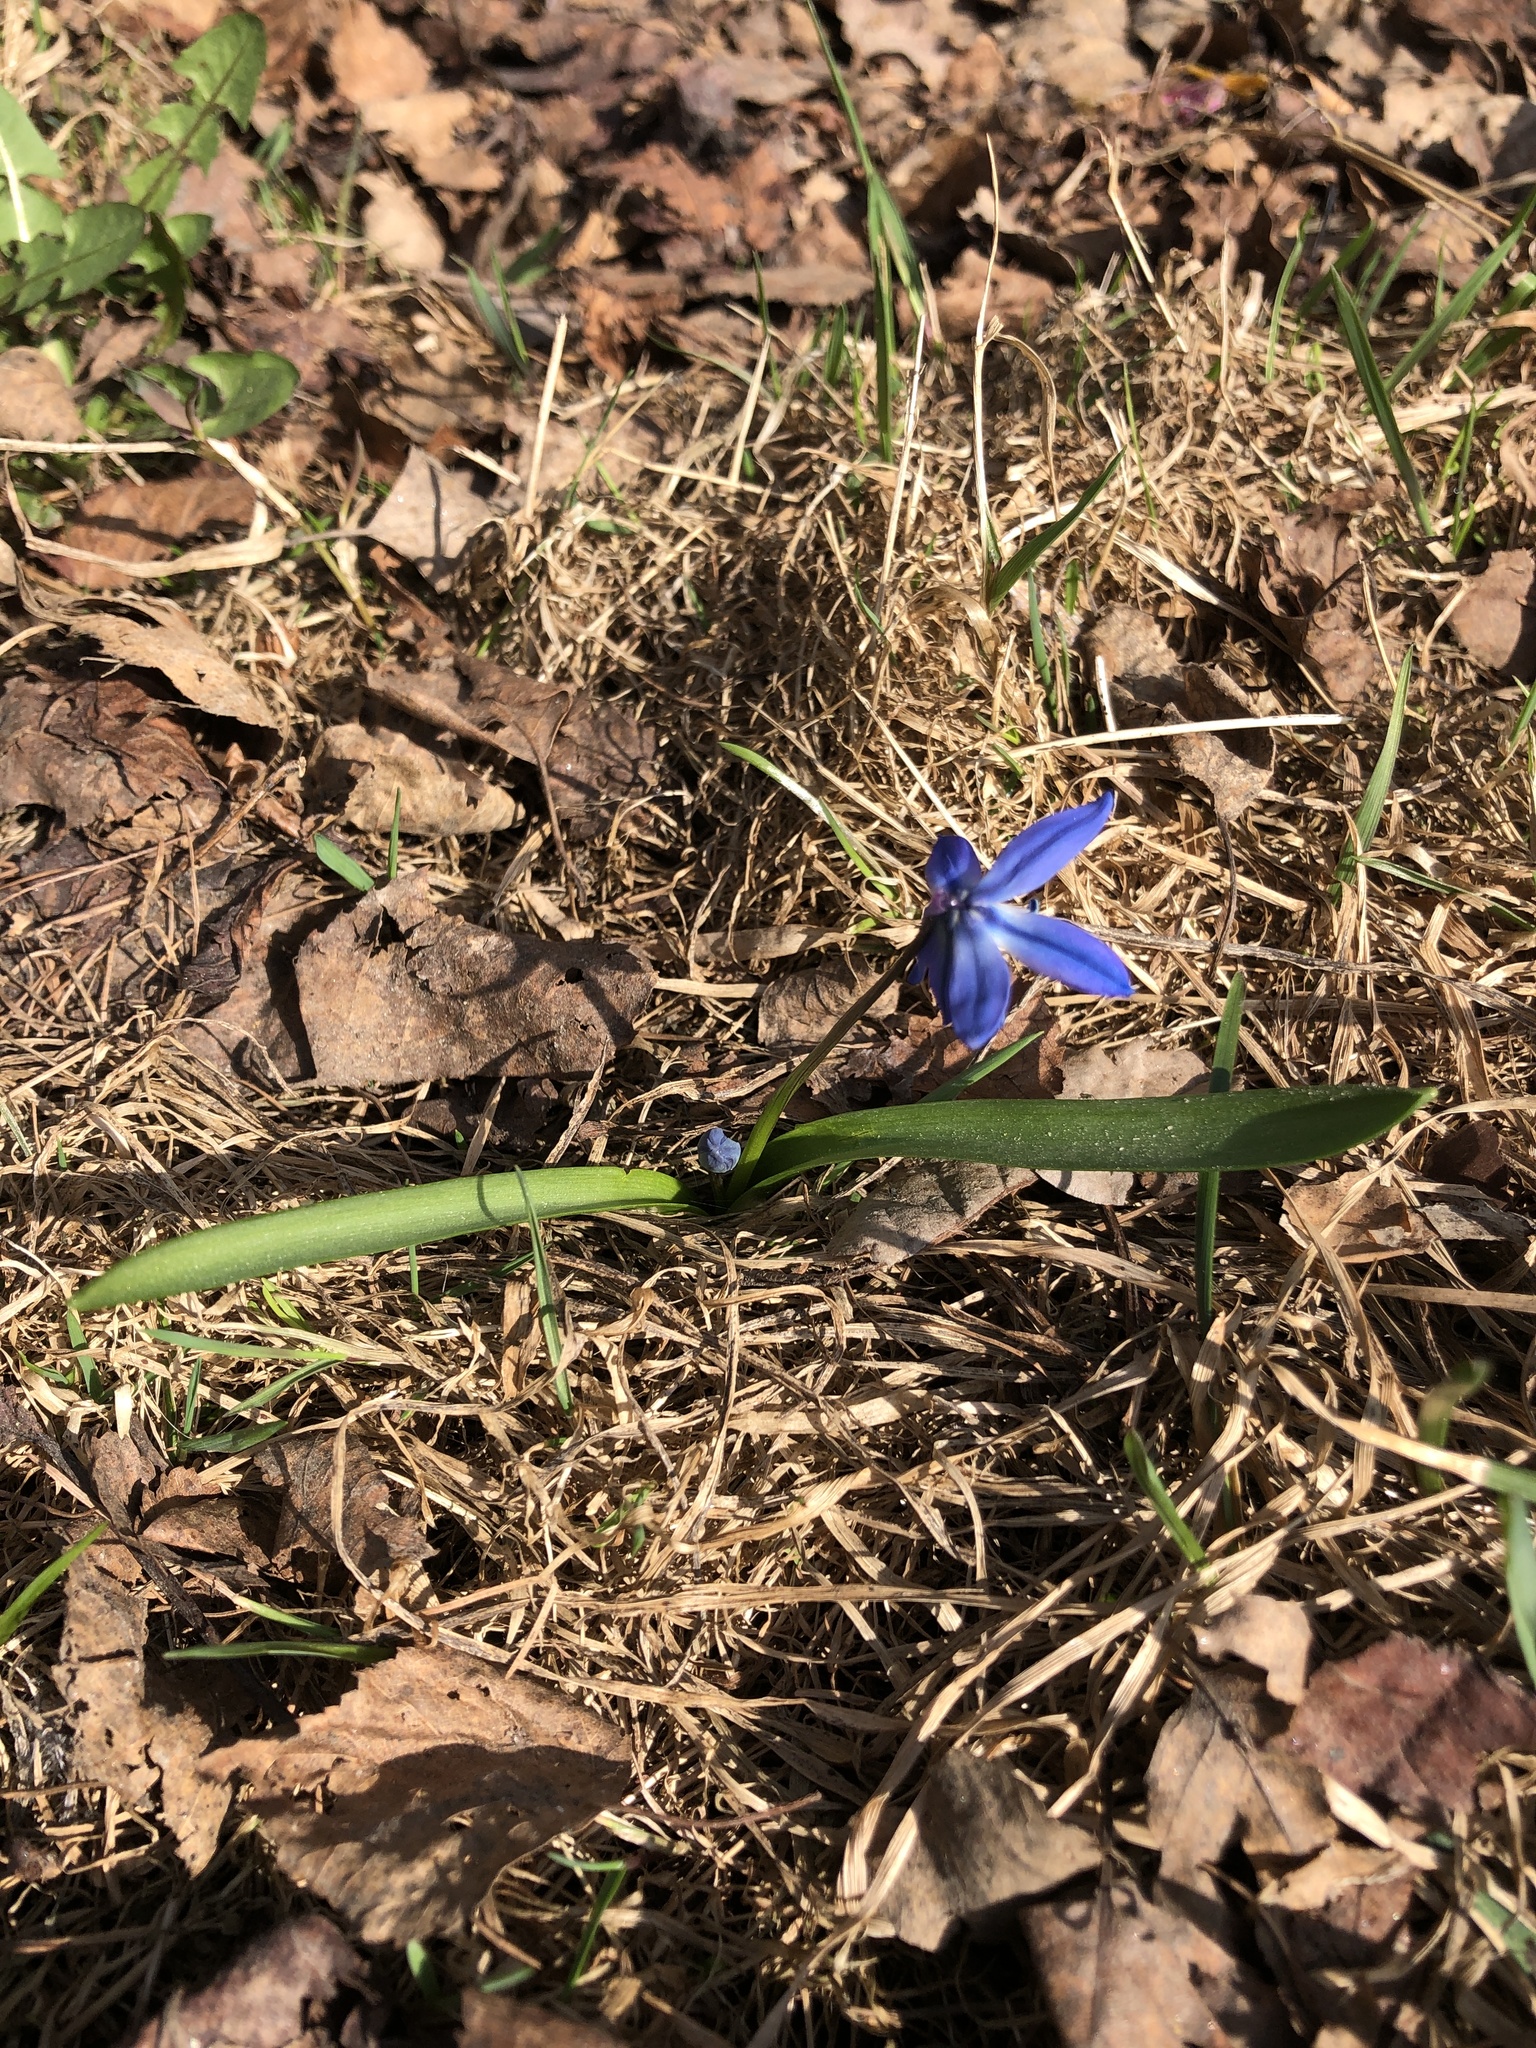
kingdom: Plantae
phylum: Tracheophyta
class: Liliopsida
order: Asparagales
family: Asparagaceae
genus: Scilla
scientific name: Scilla siberica
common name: Siberian squill
